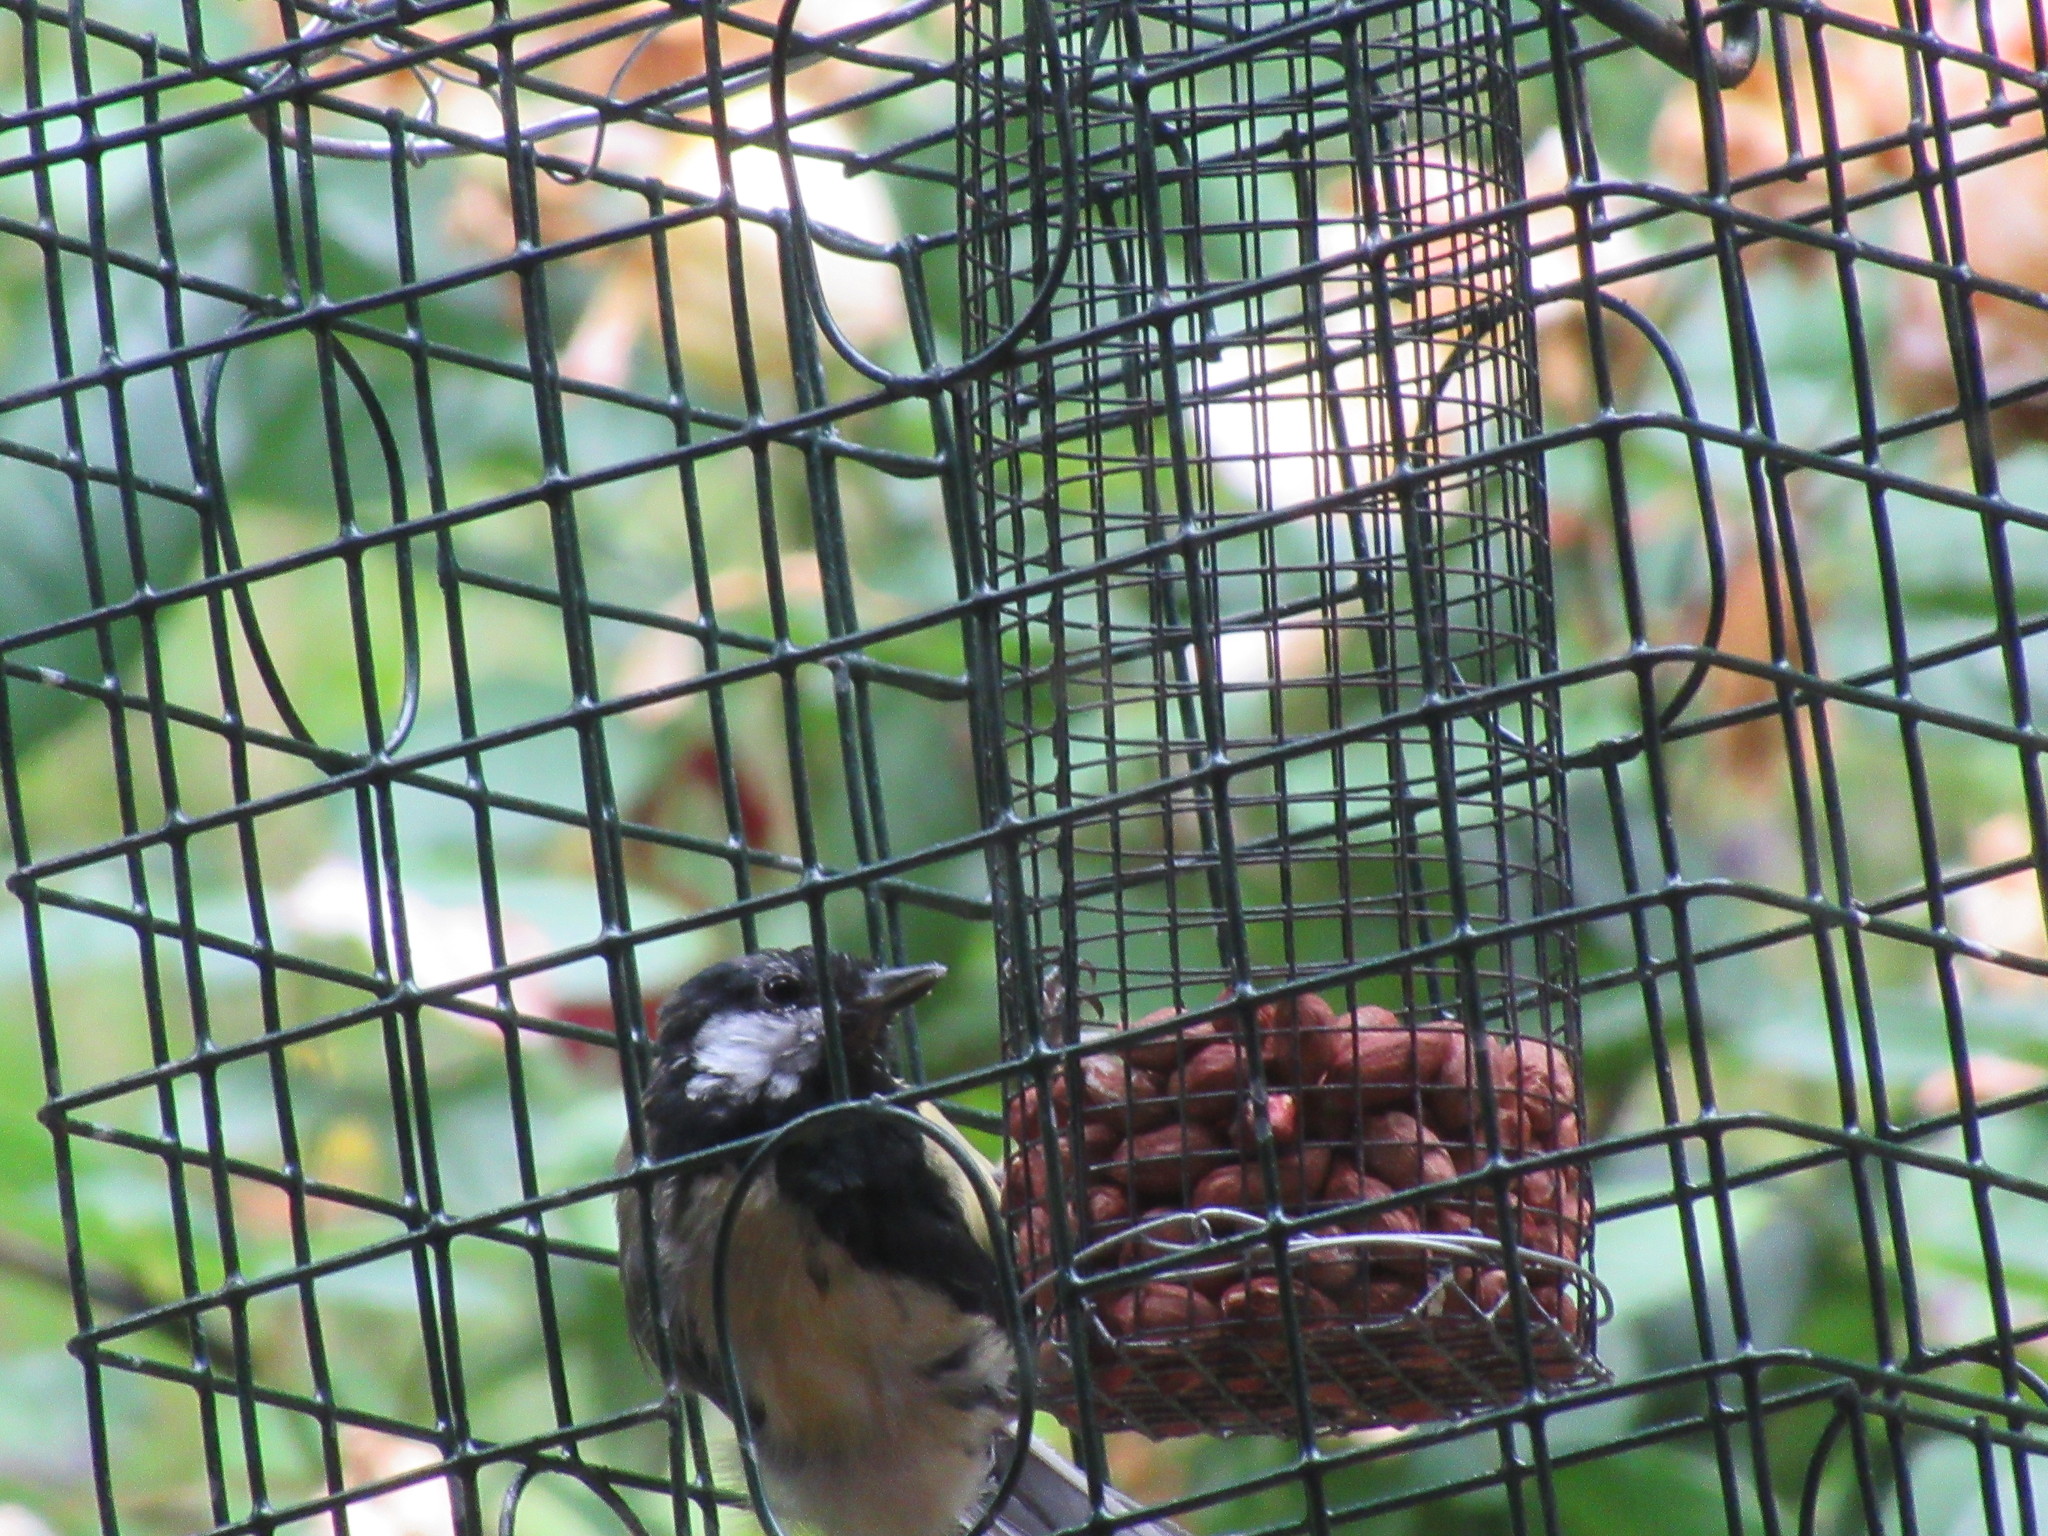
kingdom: Animalia
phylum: Chordata
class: Aves
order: Passeriformes
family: Paridae
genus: Parus
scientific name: Parus major
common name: Great tit
